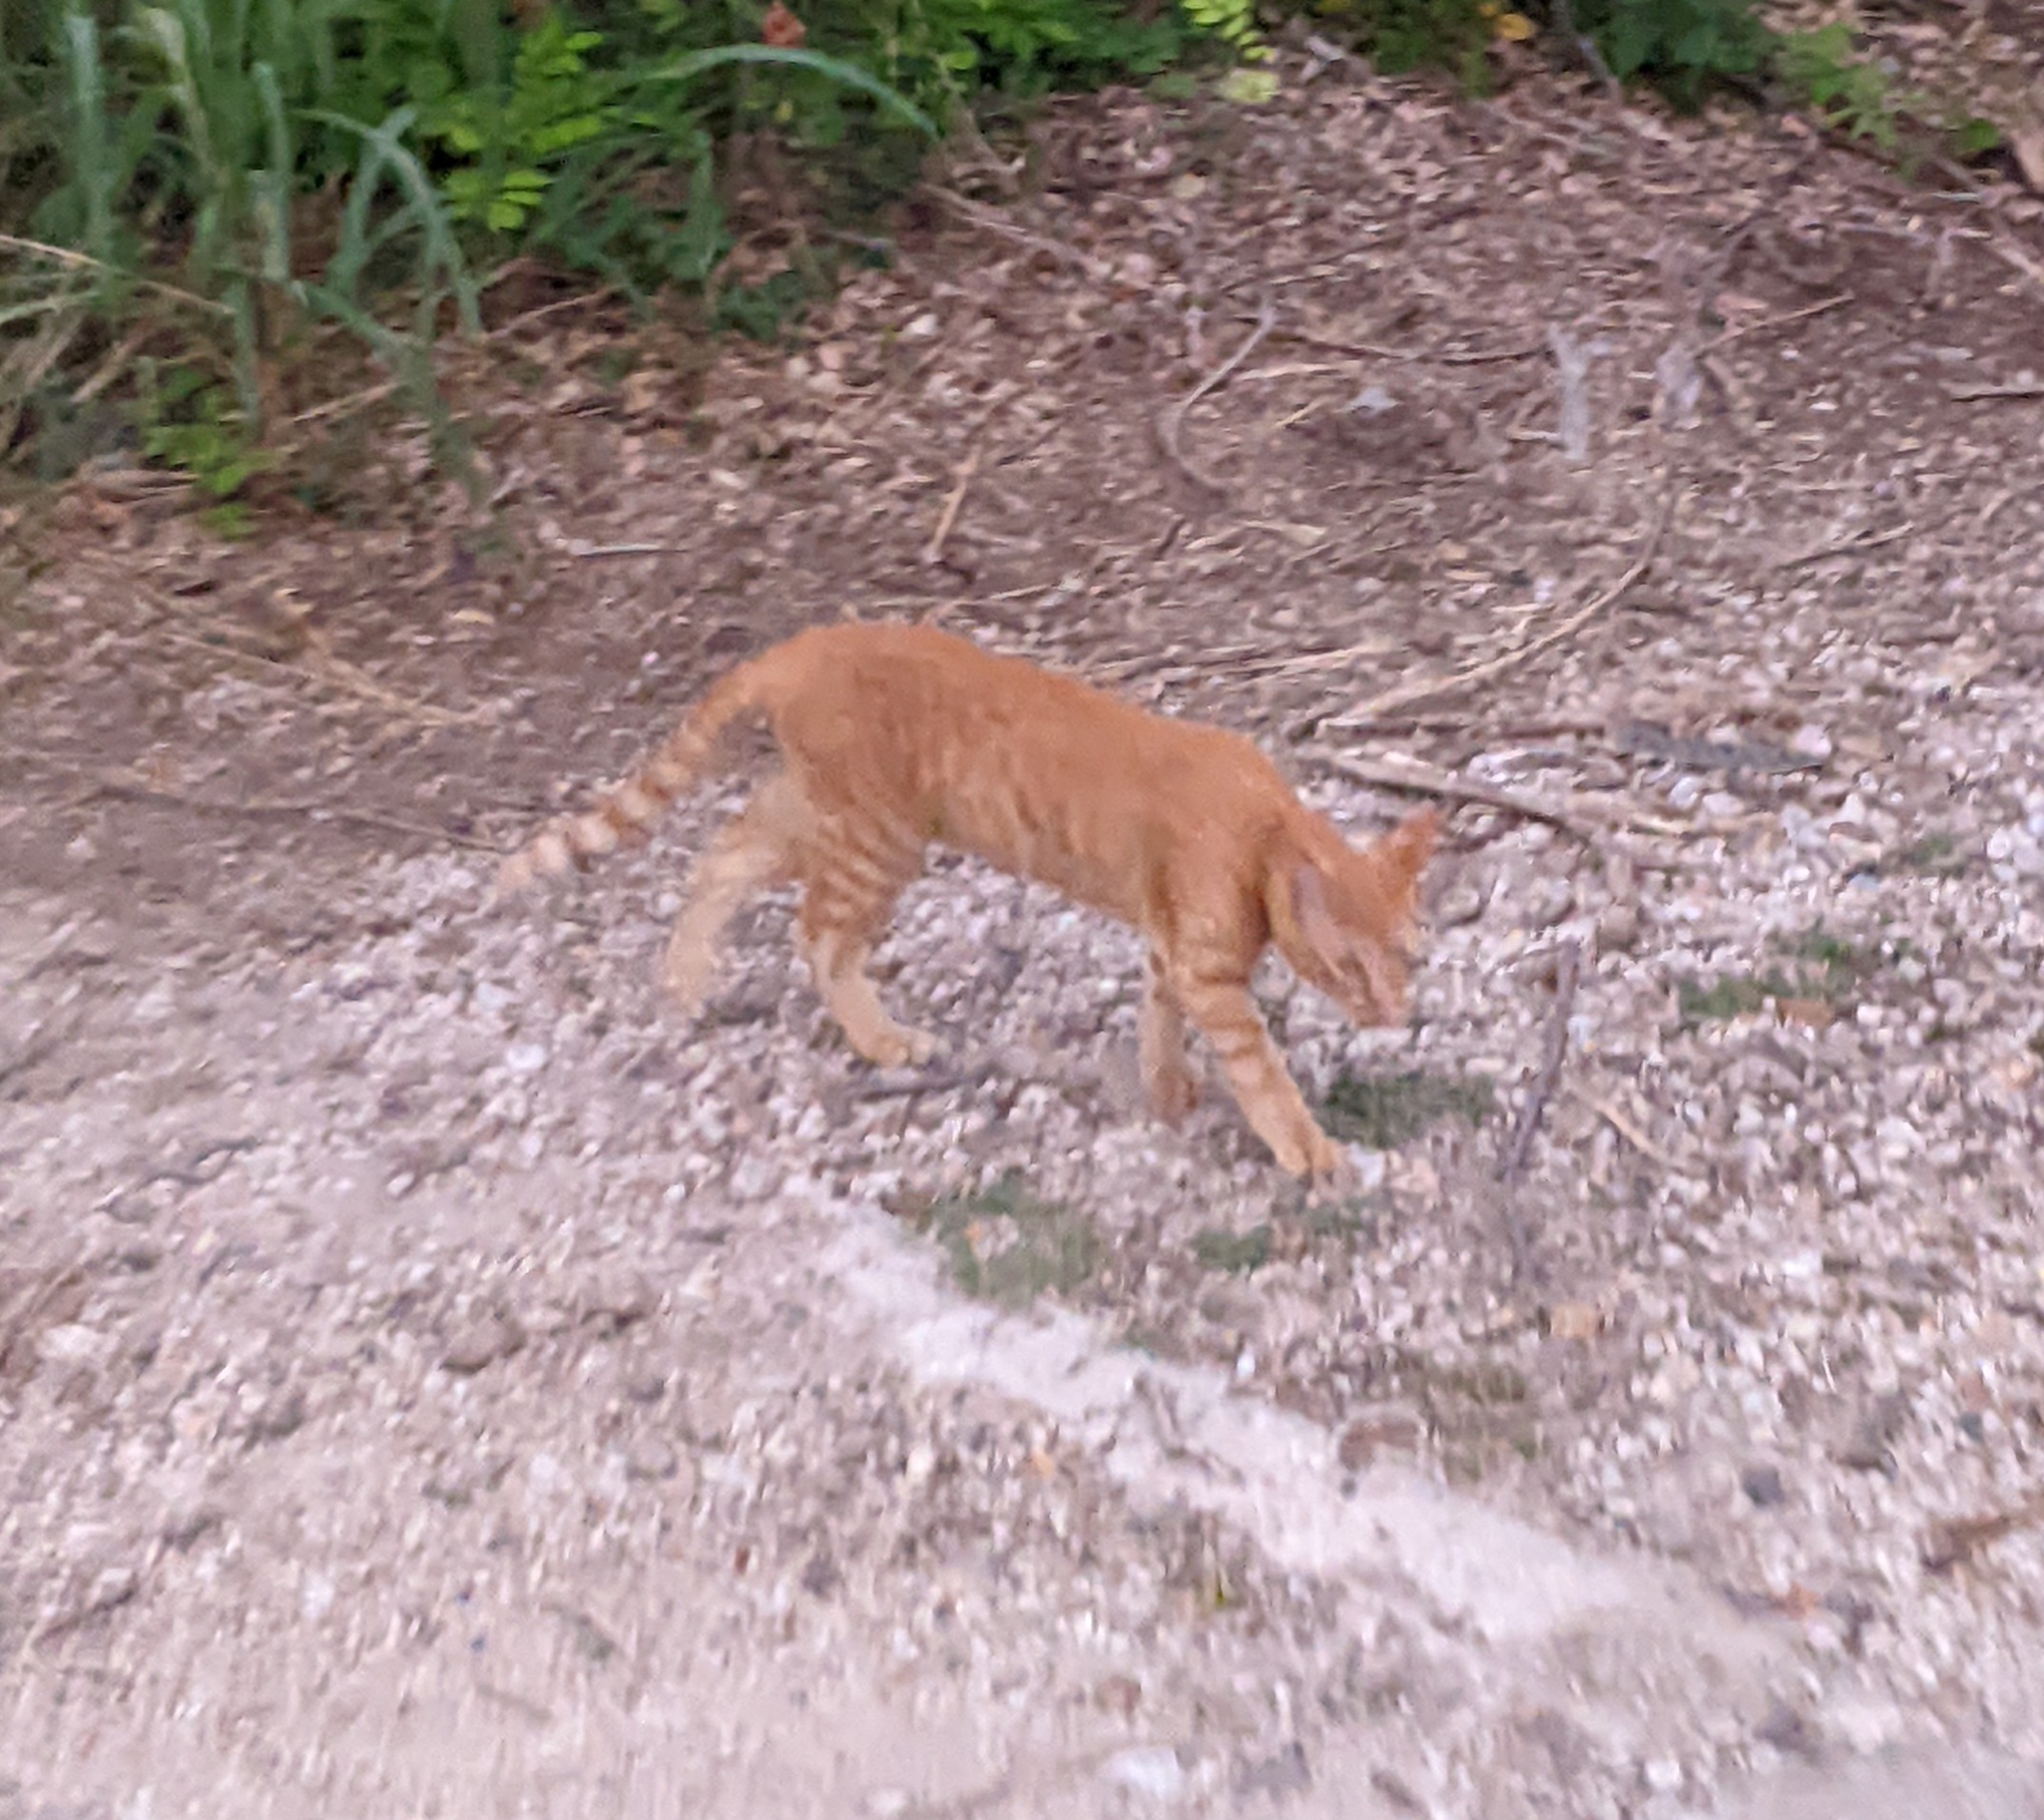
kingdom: Animalia
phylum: Chordata
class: Mammalia
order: Carnivora
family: Felidae
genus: Felis
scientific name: Felis catus
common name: Domestic cat
